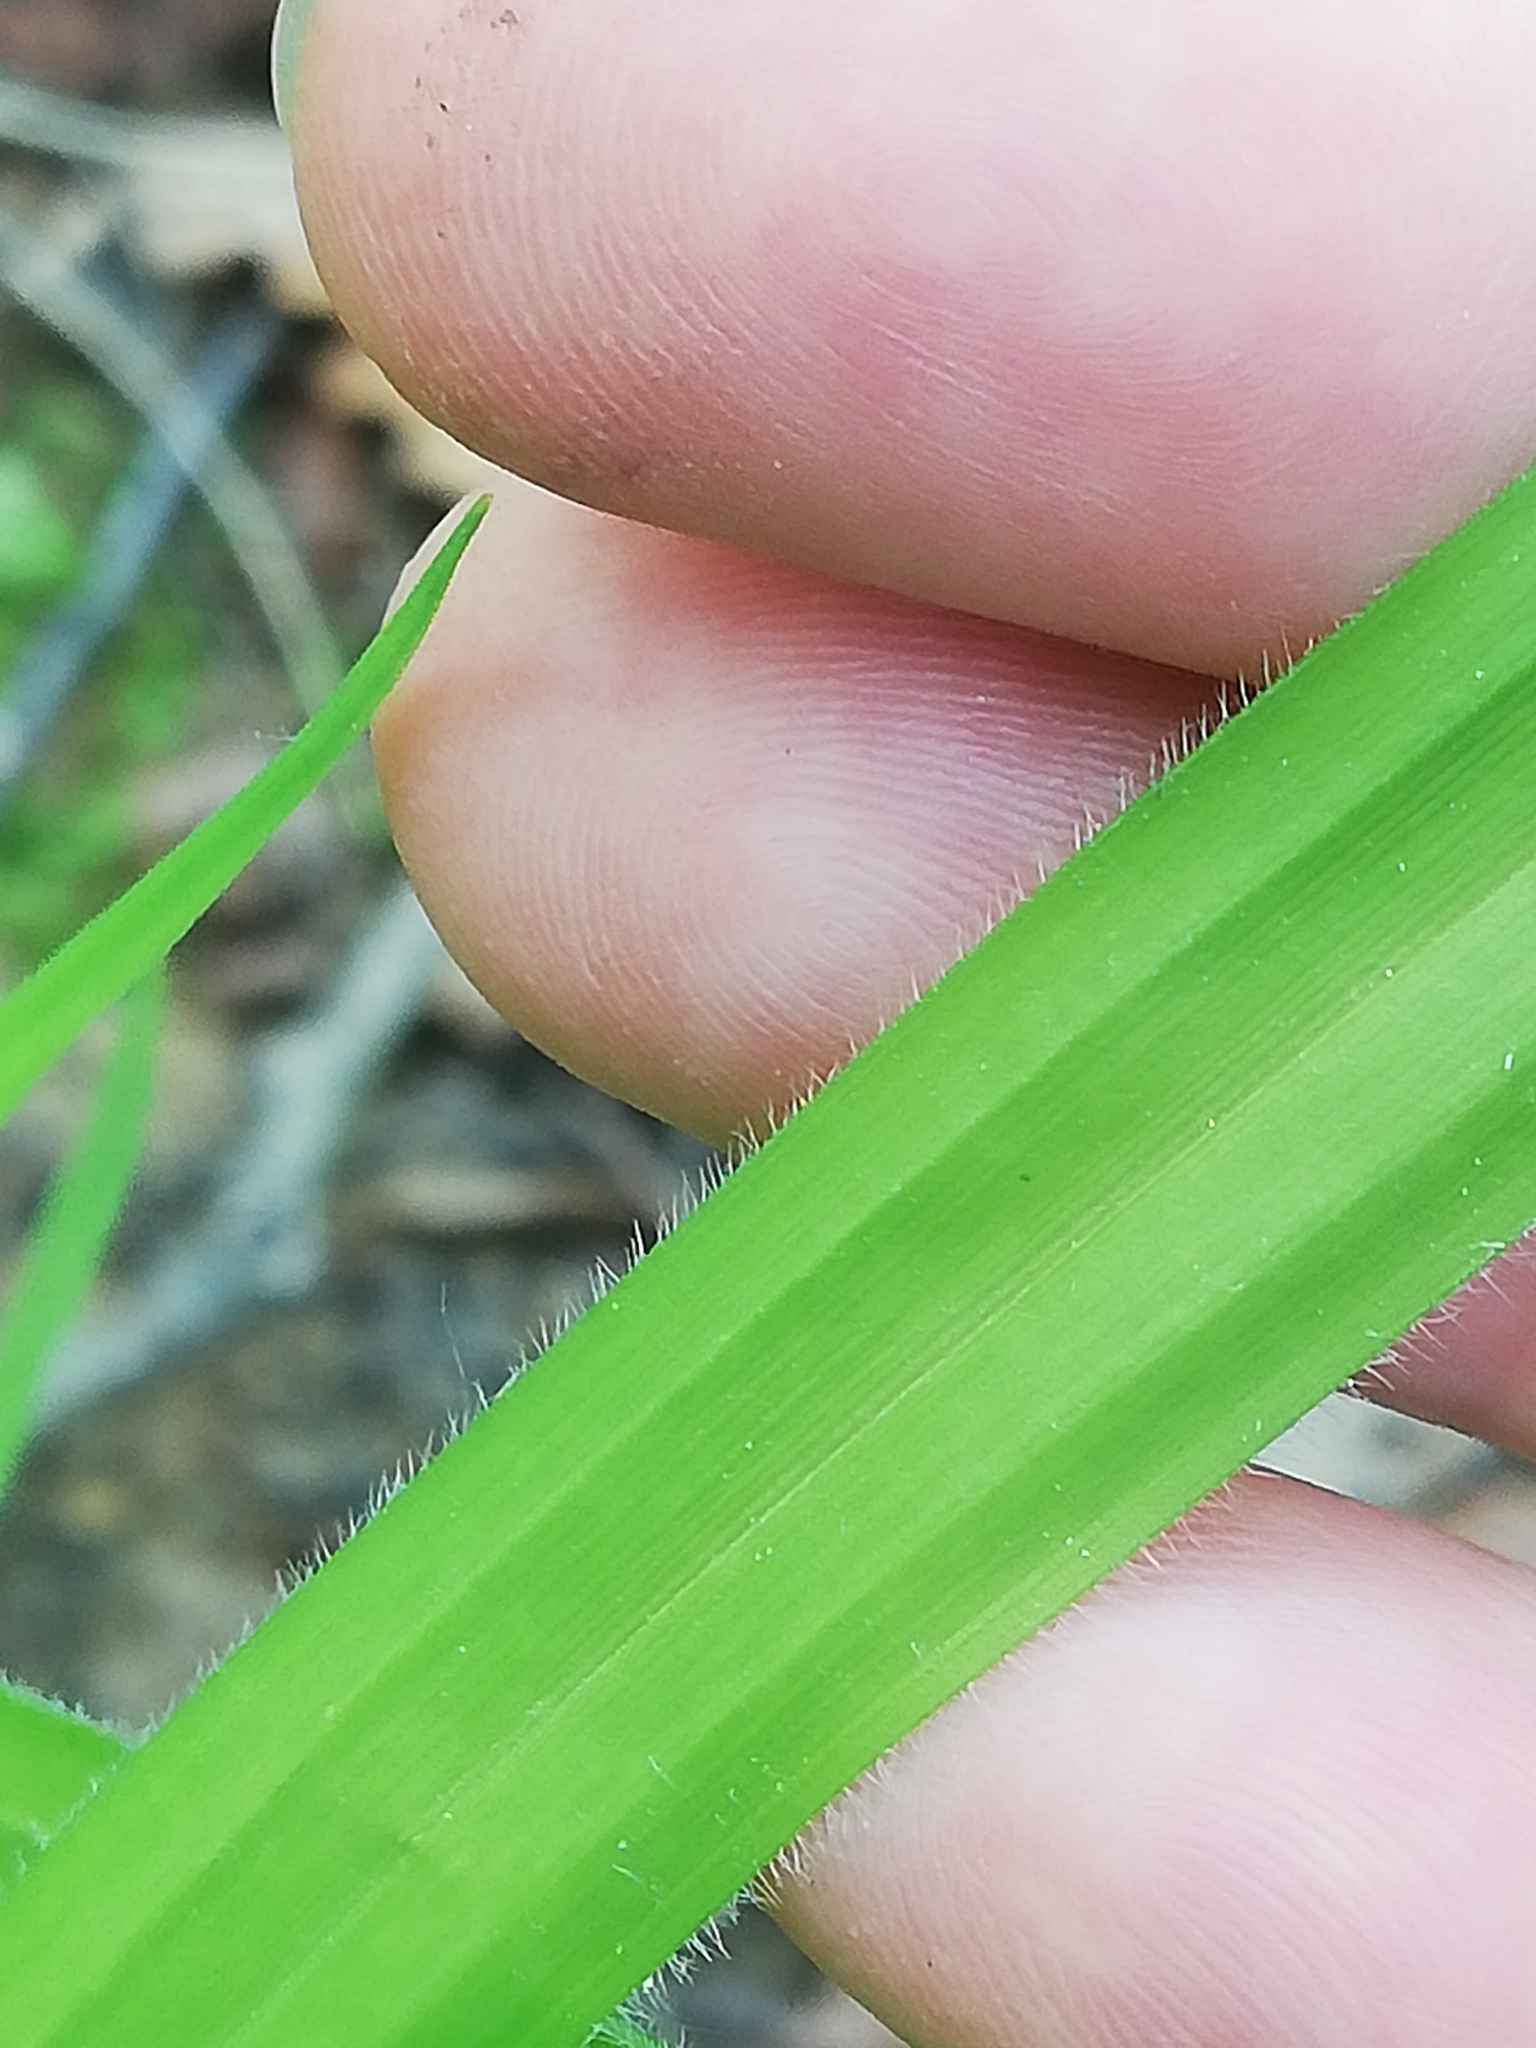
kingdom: Plantae
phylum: Tracheophyta
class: Liliopsida
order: Poales
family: Cyperaceae
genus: Carex
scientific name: Carex pilosa
